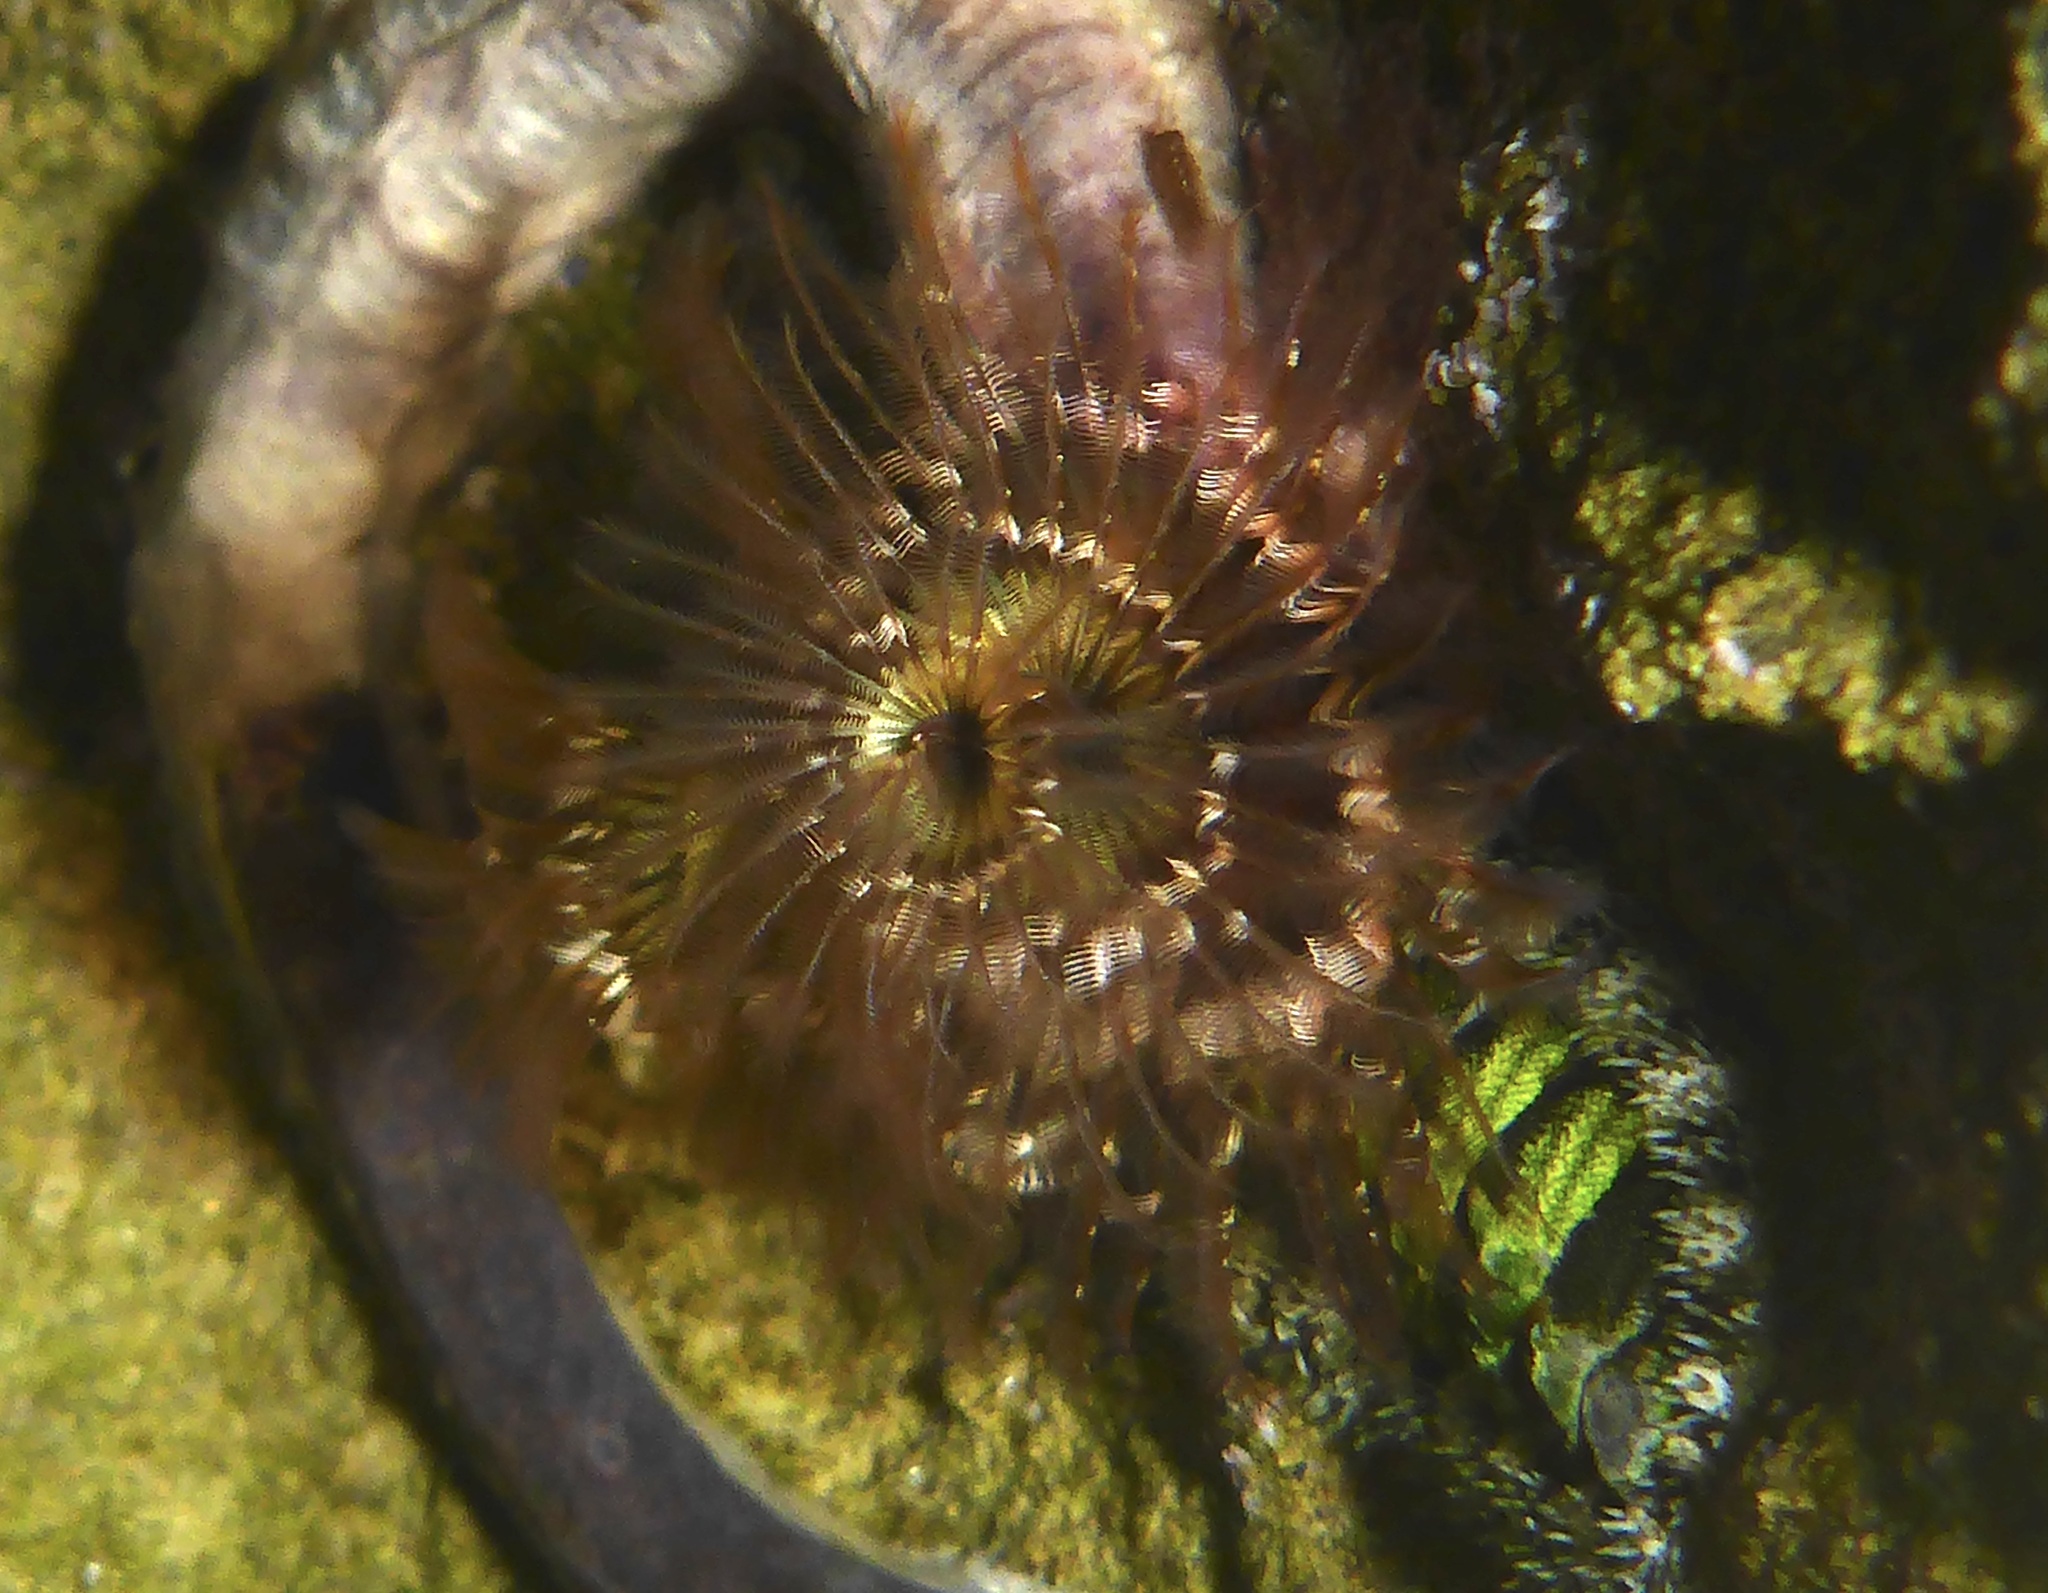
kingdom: Animalia
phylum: Annelida
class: Polychaeta
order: Sabellida
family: Serpulidae
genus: Spirobranchus
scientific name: Spirobranchus spinosus
